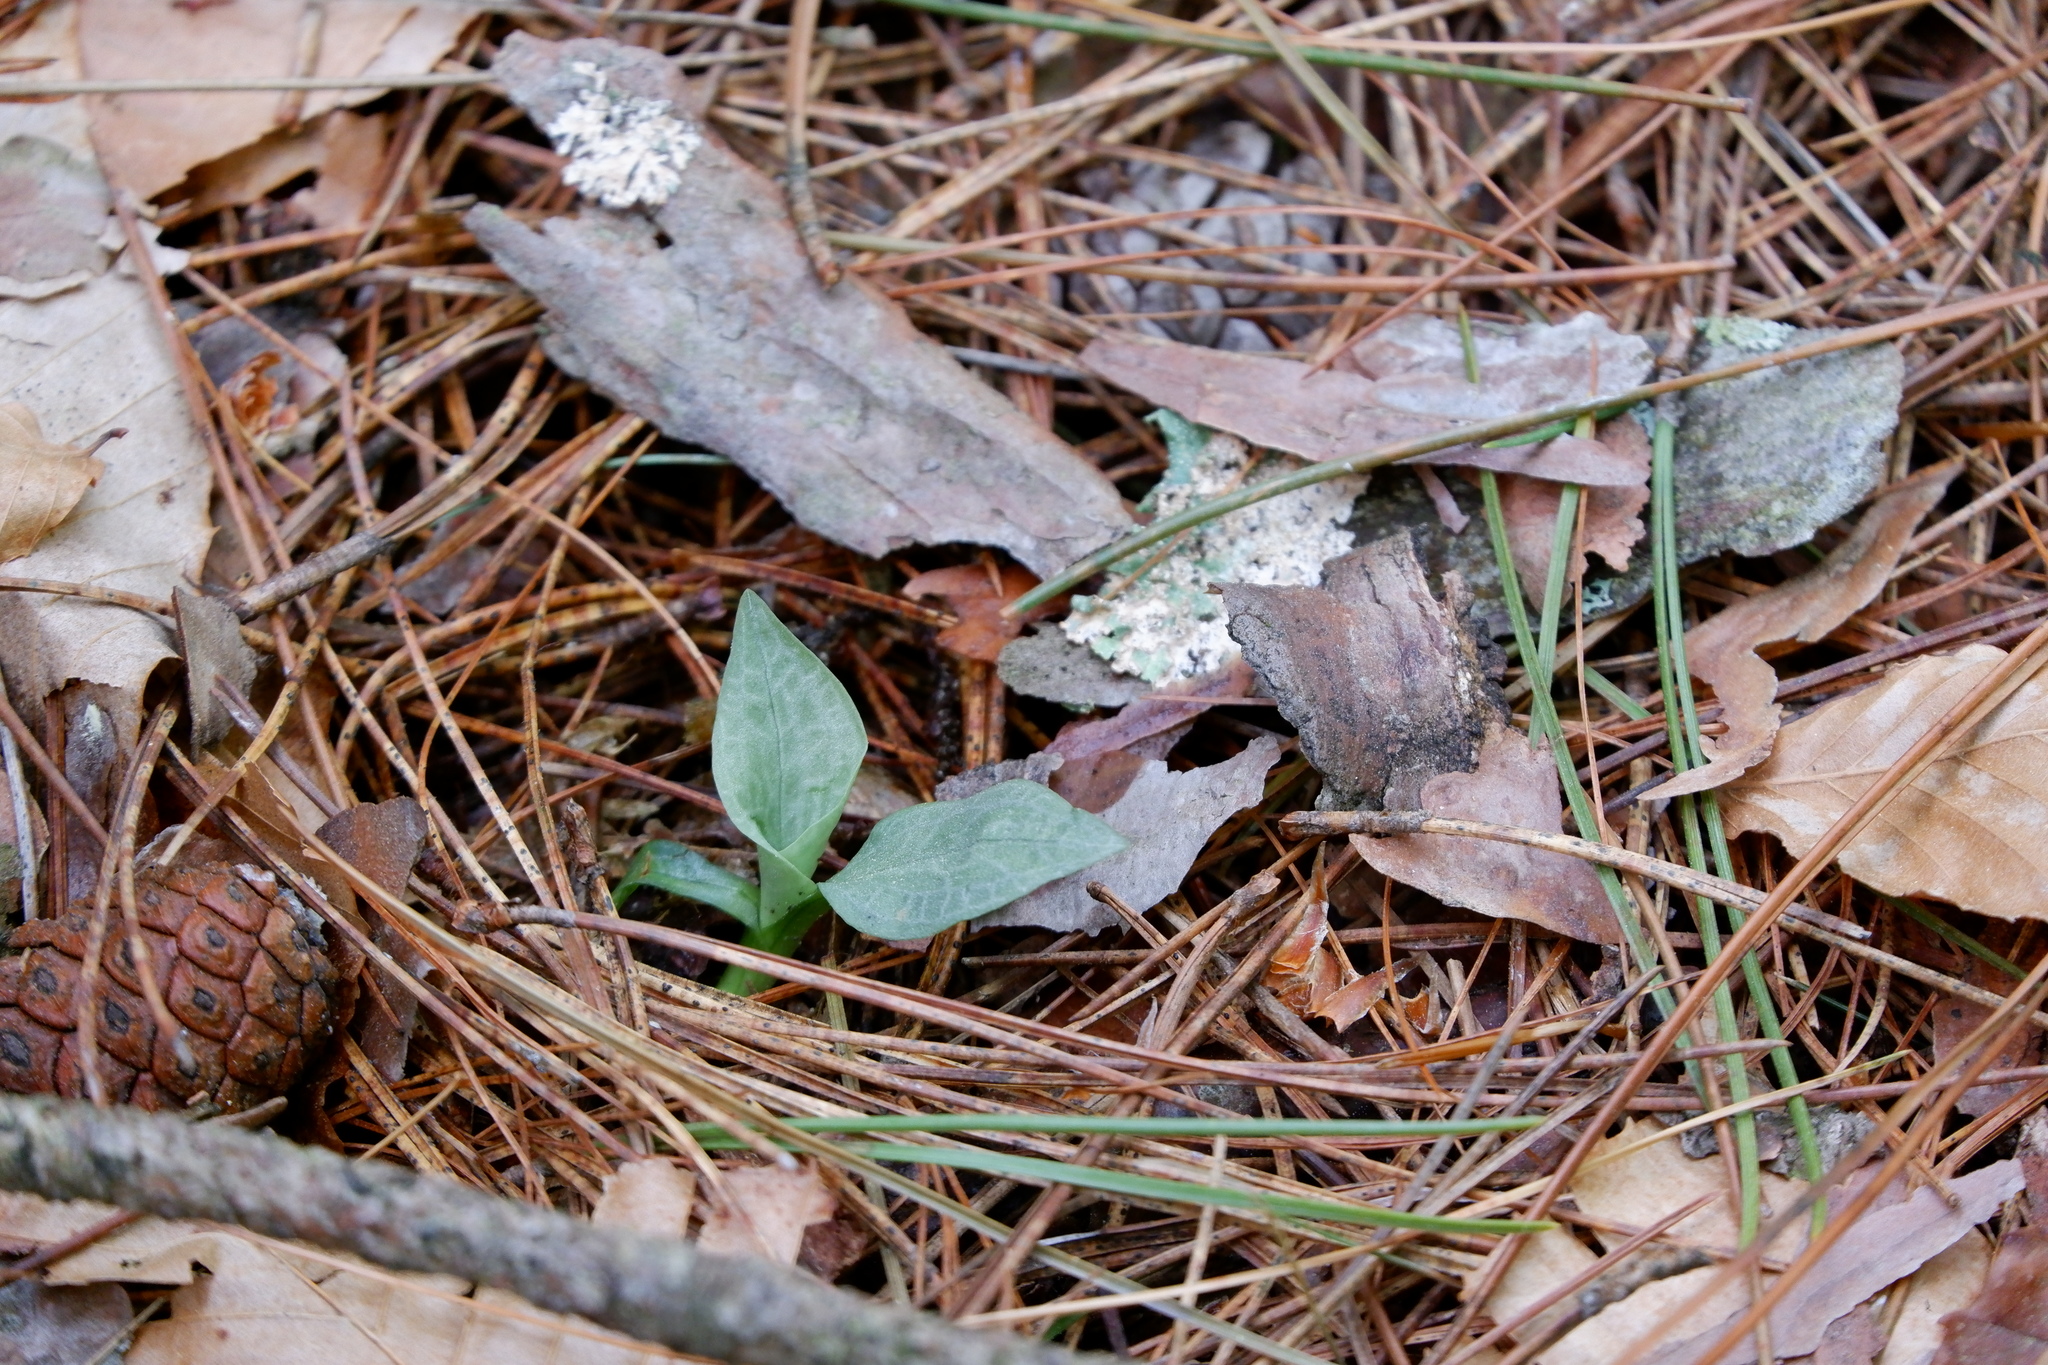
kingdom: Plantae
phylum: Tracheophyta
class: Liliopsida
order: Asparagales
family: Orchidaceae
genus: Goodyera
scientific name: Goodyera tesselata
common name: Checkered rattlesnake-plantain
